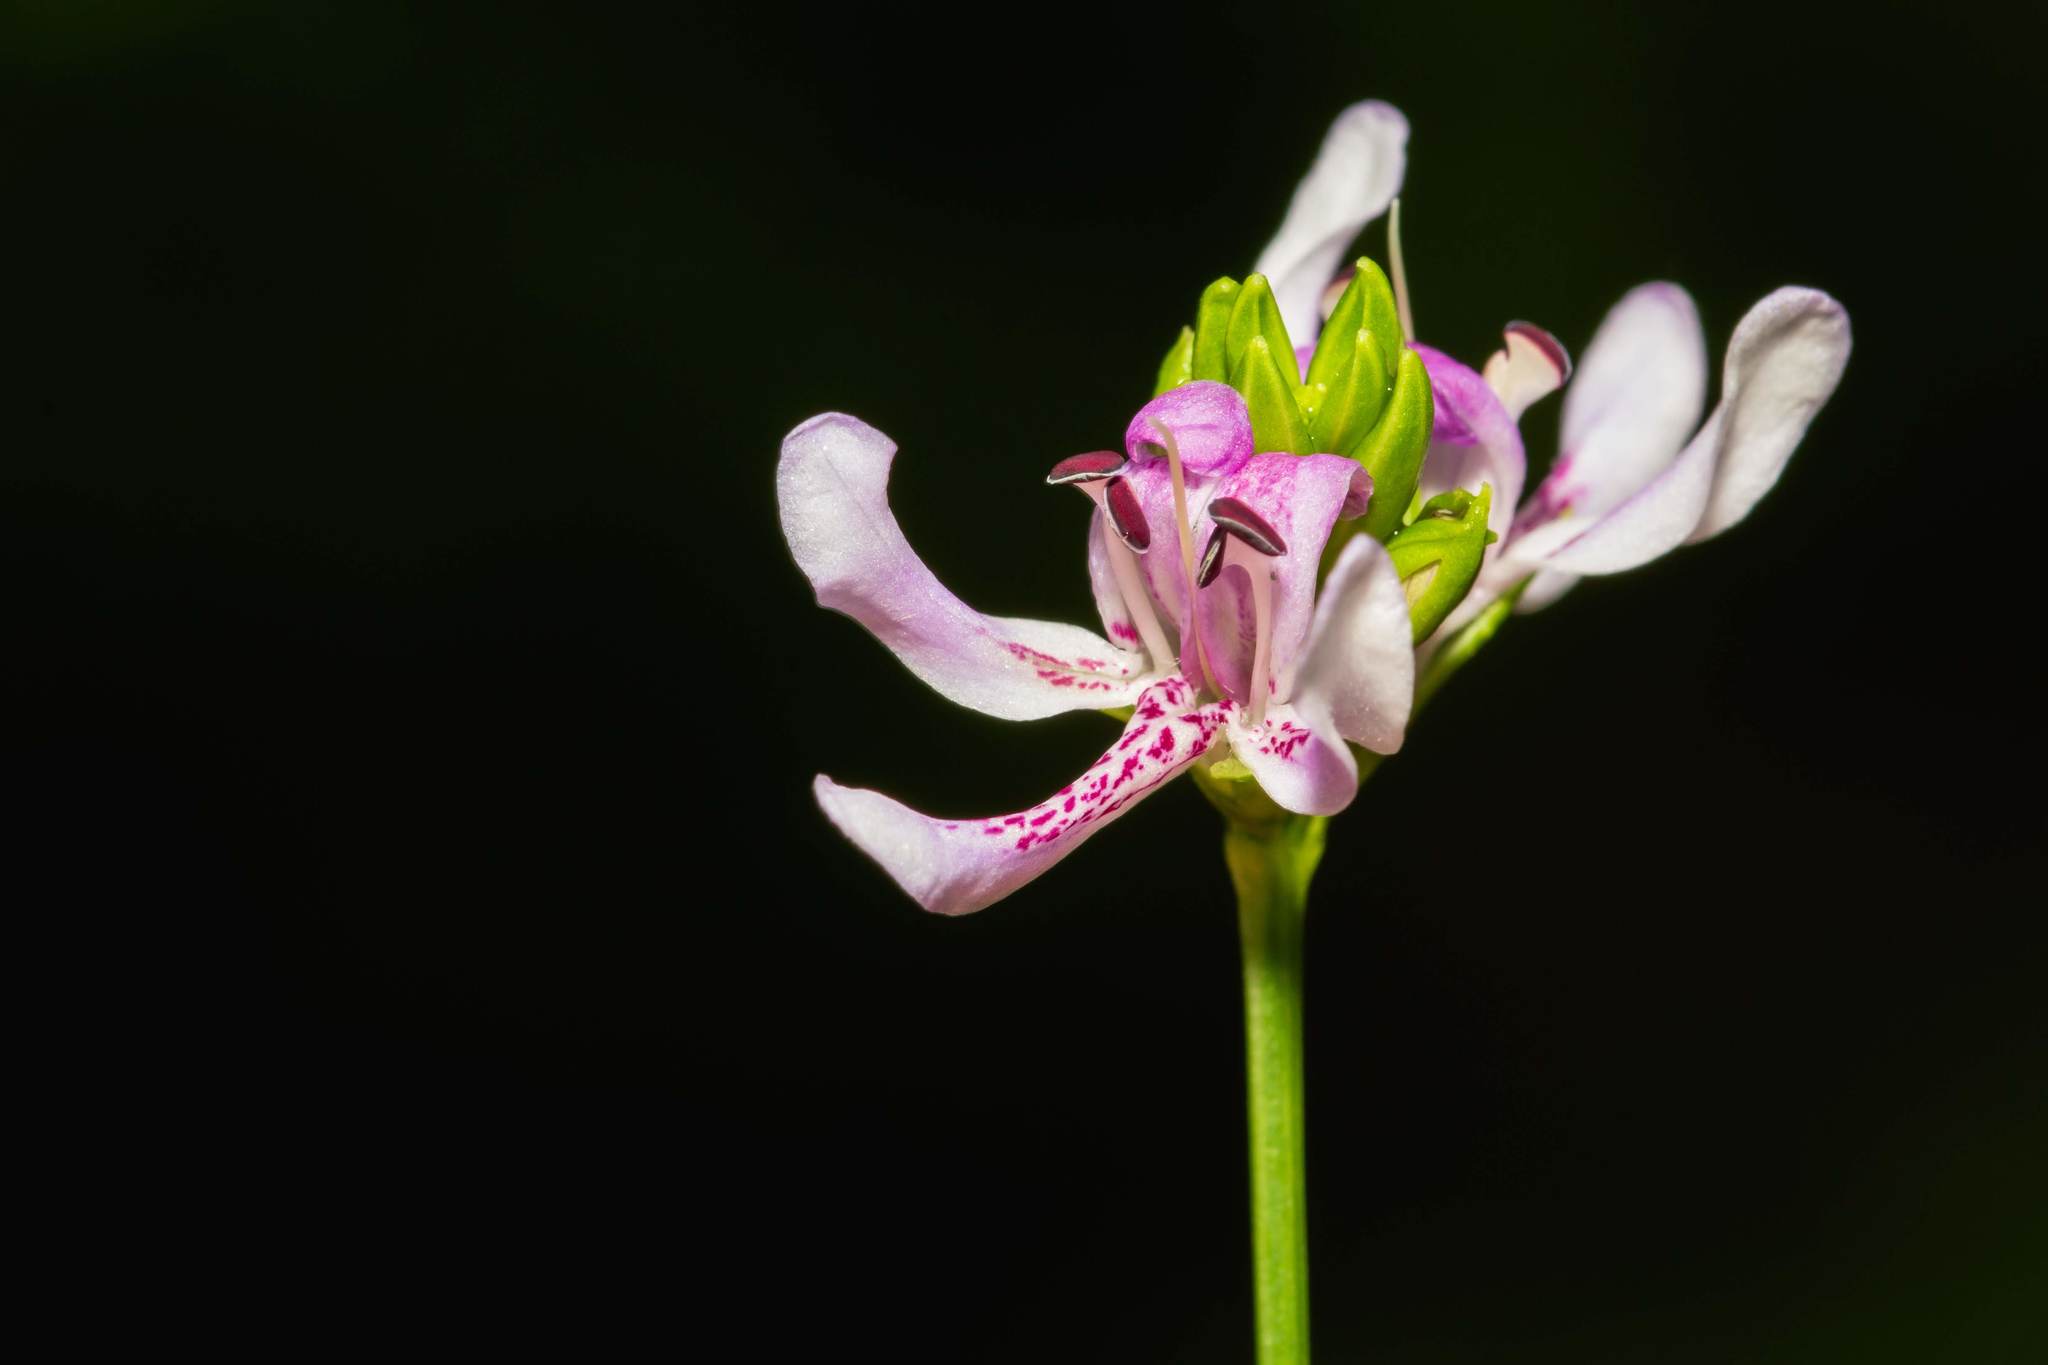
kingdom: Plantae
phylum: Tracheophyta
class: Magnoliopsida
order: Lamiales
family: Acanthaceae
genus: Dianthera
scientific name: Dianthera americana
